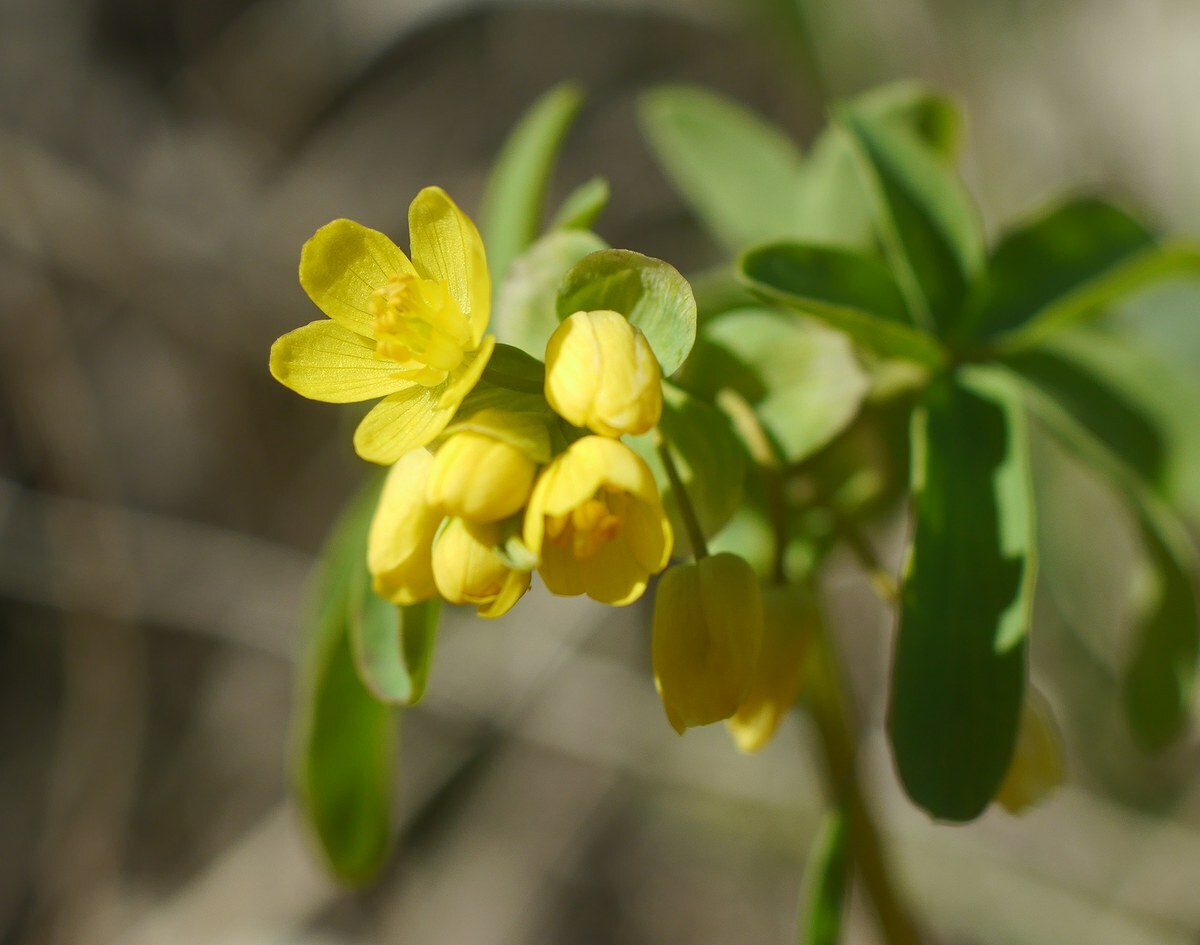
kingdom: Plantae
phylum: Tracheophyta
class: Magnoliopsida
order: Ranunculales
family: Berberidaceae
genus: Gymnospermium
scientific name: Gymnospermium odessanum
